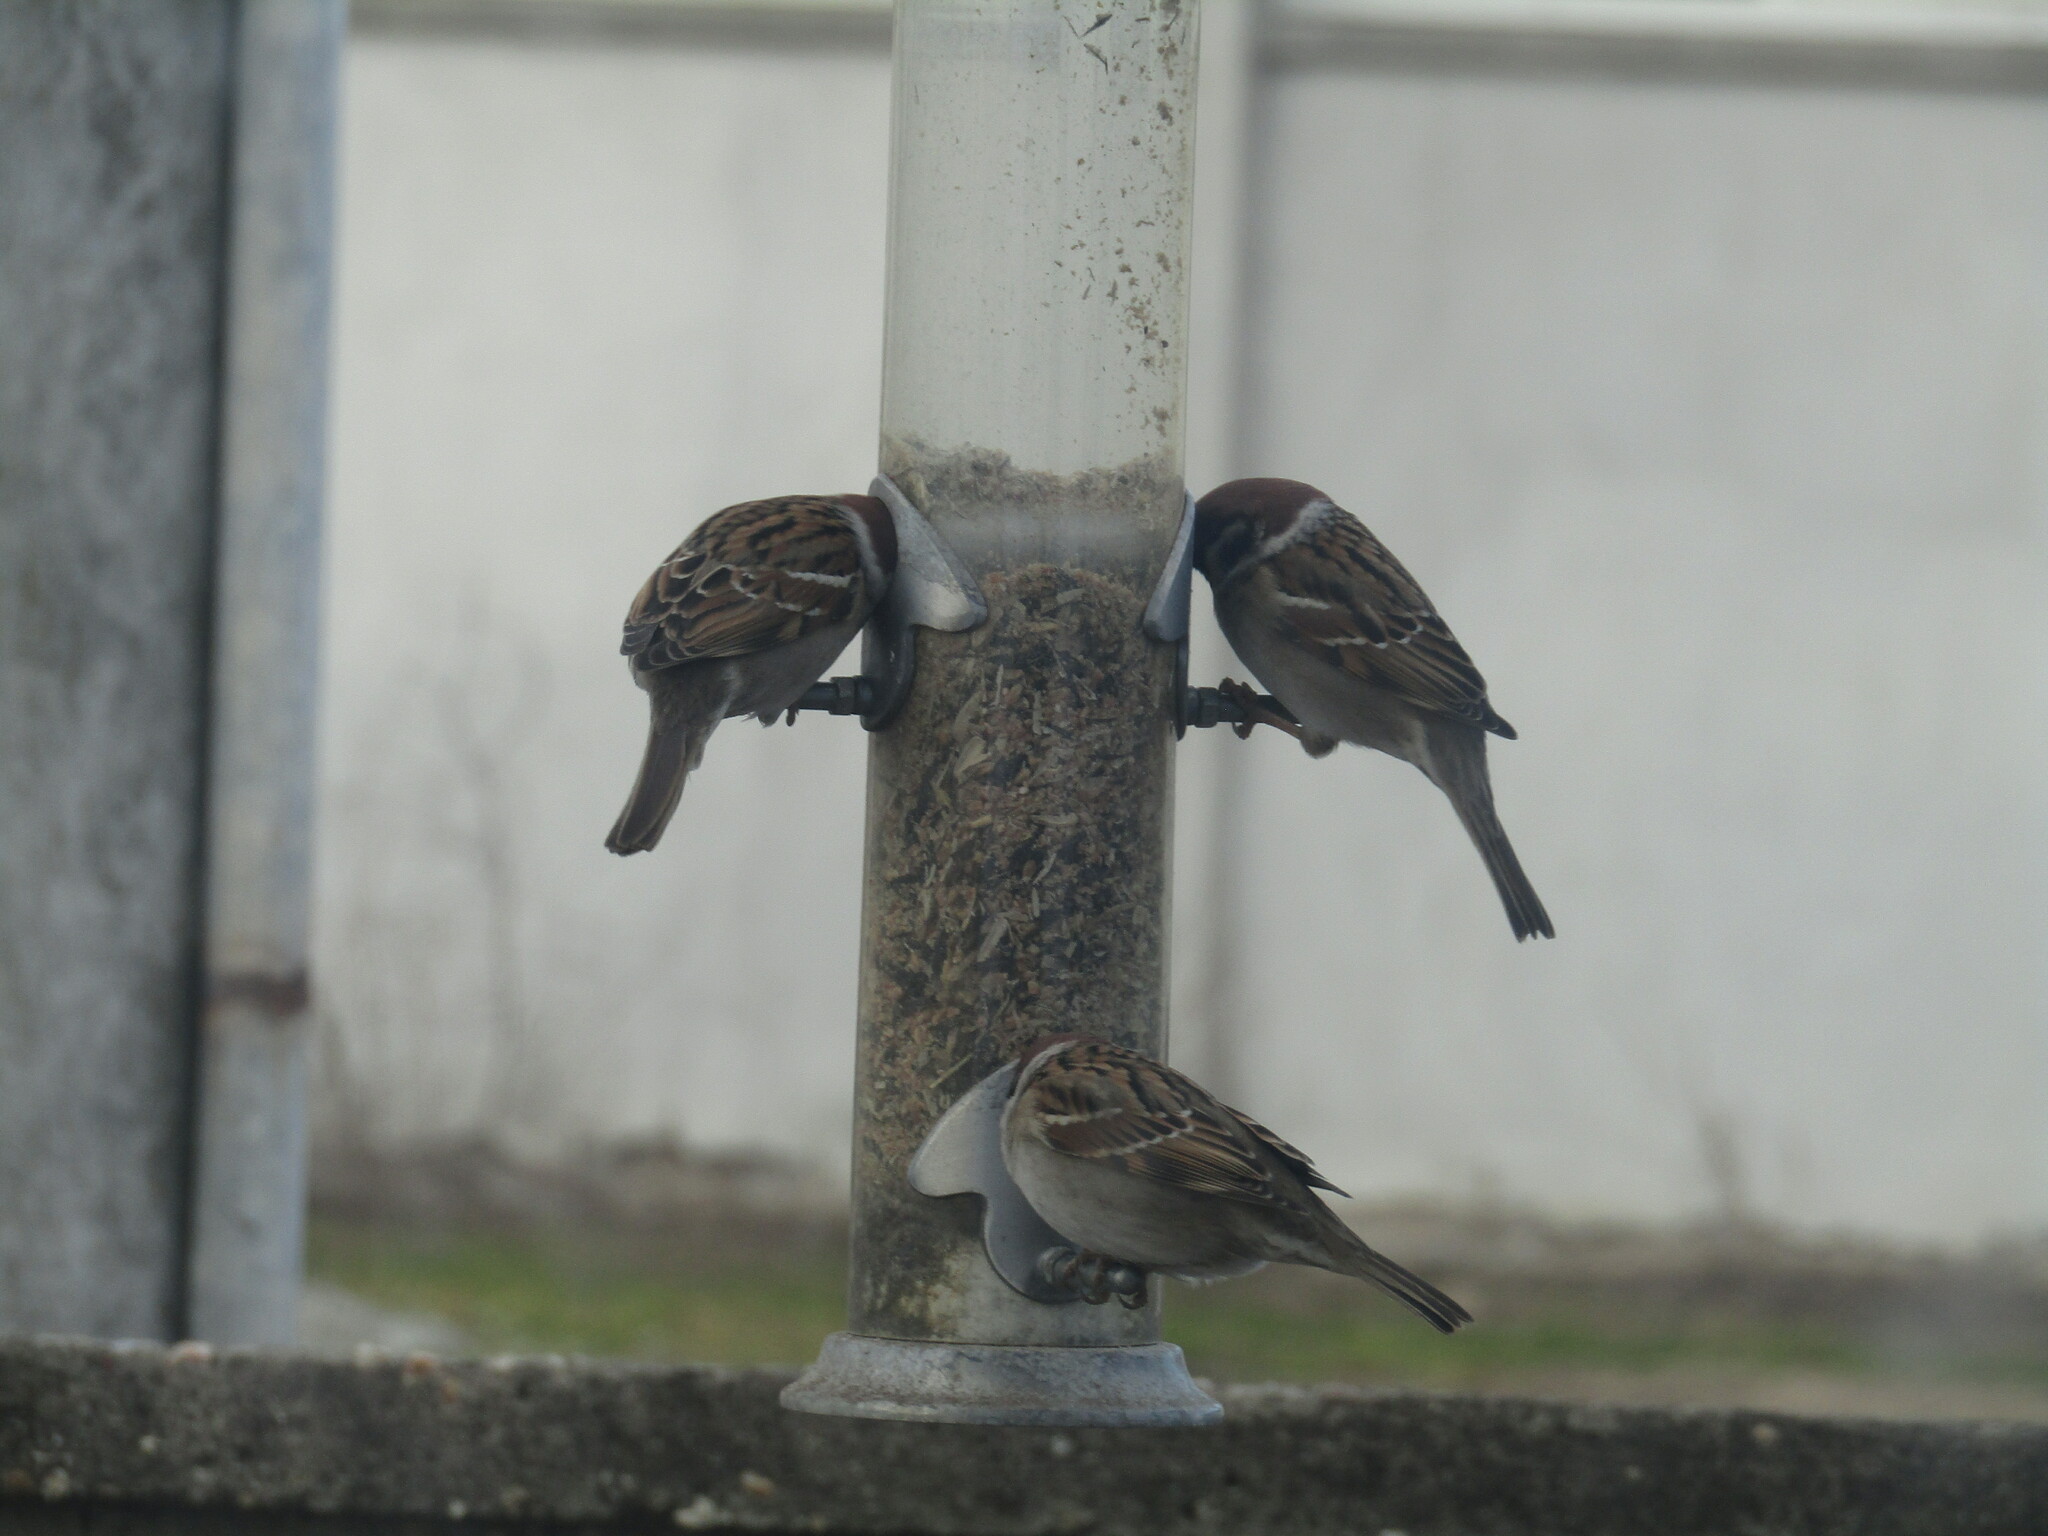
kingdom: Animalia
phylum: Chordata
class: Aves
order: Passeriformes
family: Passeridae
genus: Passer
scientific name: Passer montanus
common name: Eurasian tree sparrow
